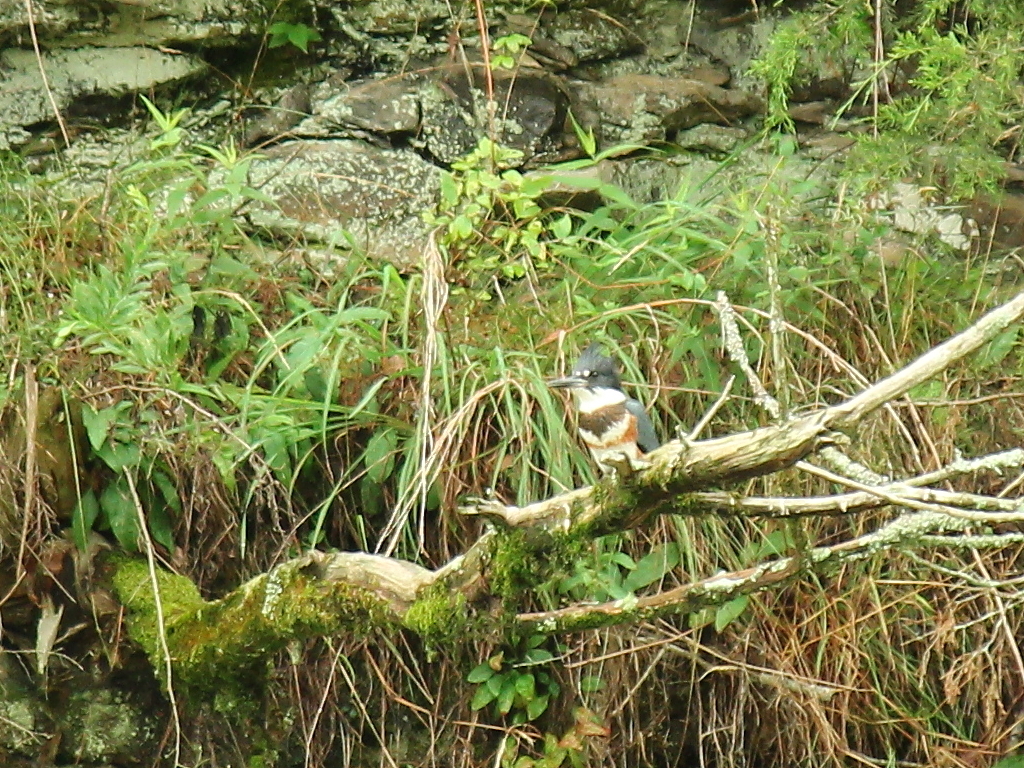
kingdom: Animalia
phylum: Chordata
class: Aves
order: Coraciiformes
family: Alcedinidae
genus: Megaceryle
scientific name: Megaceryle alcyon
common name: Belted kingfisher
